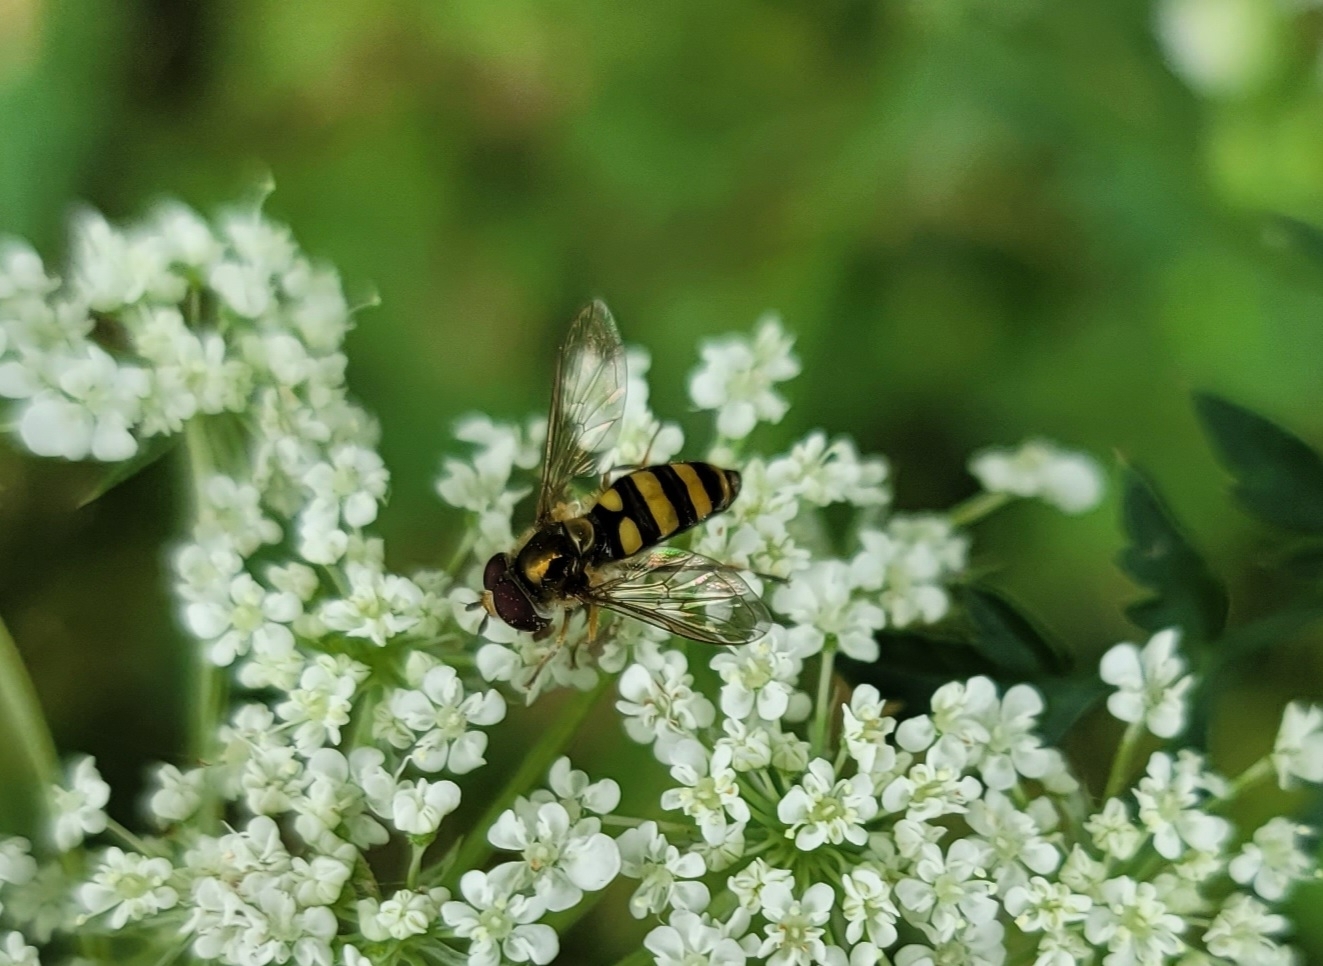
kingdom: Animalia
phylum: Arthropoda
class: Insecta
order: Diptera
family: Syrphidae
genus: Eupeodes
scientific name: Eupeodes
